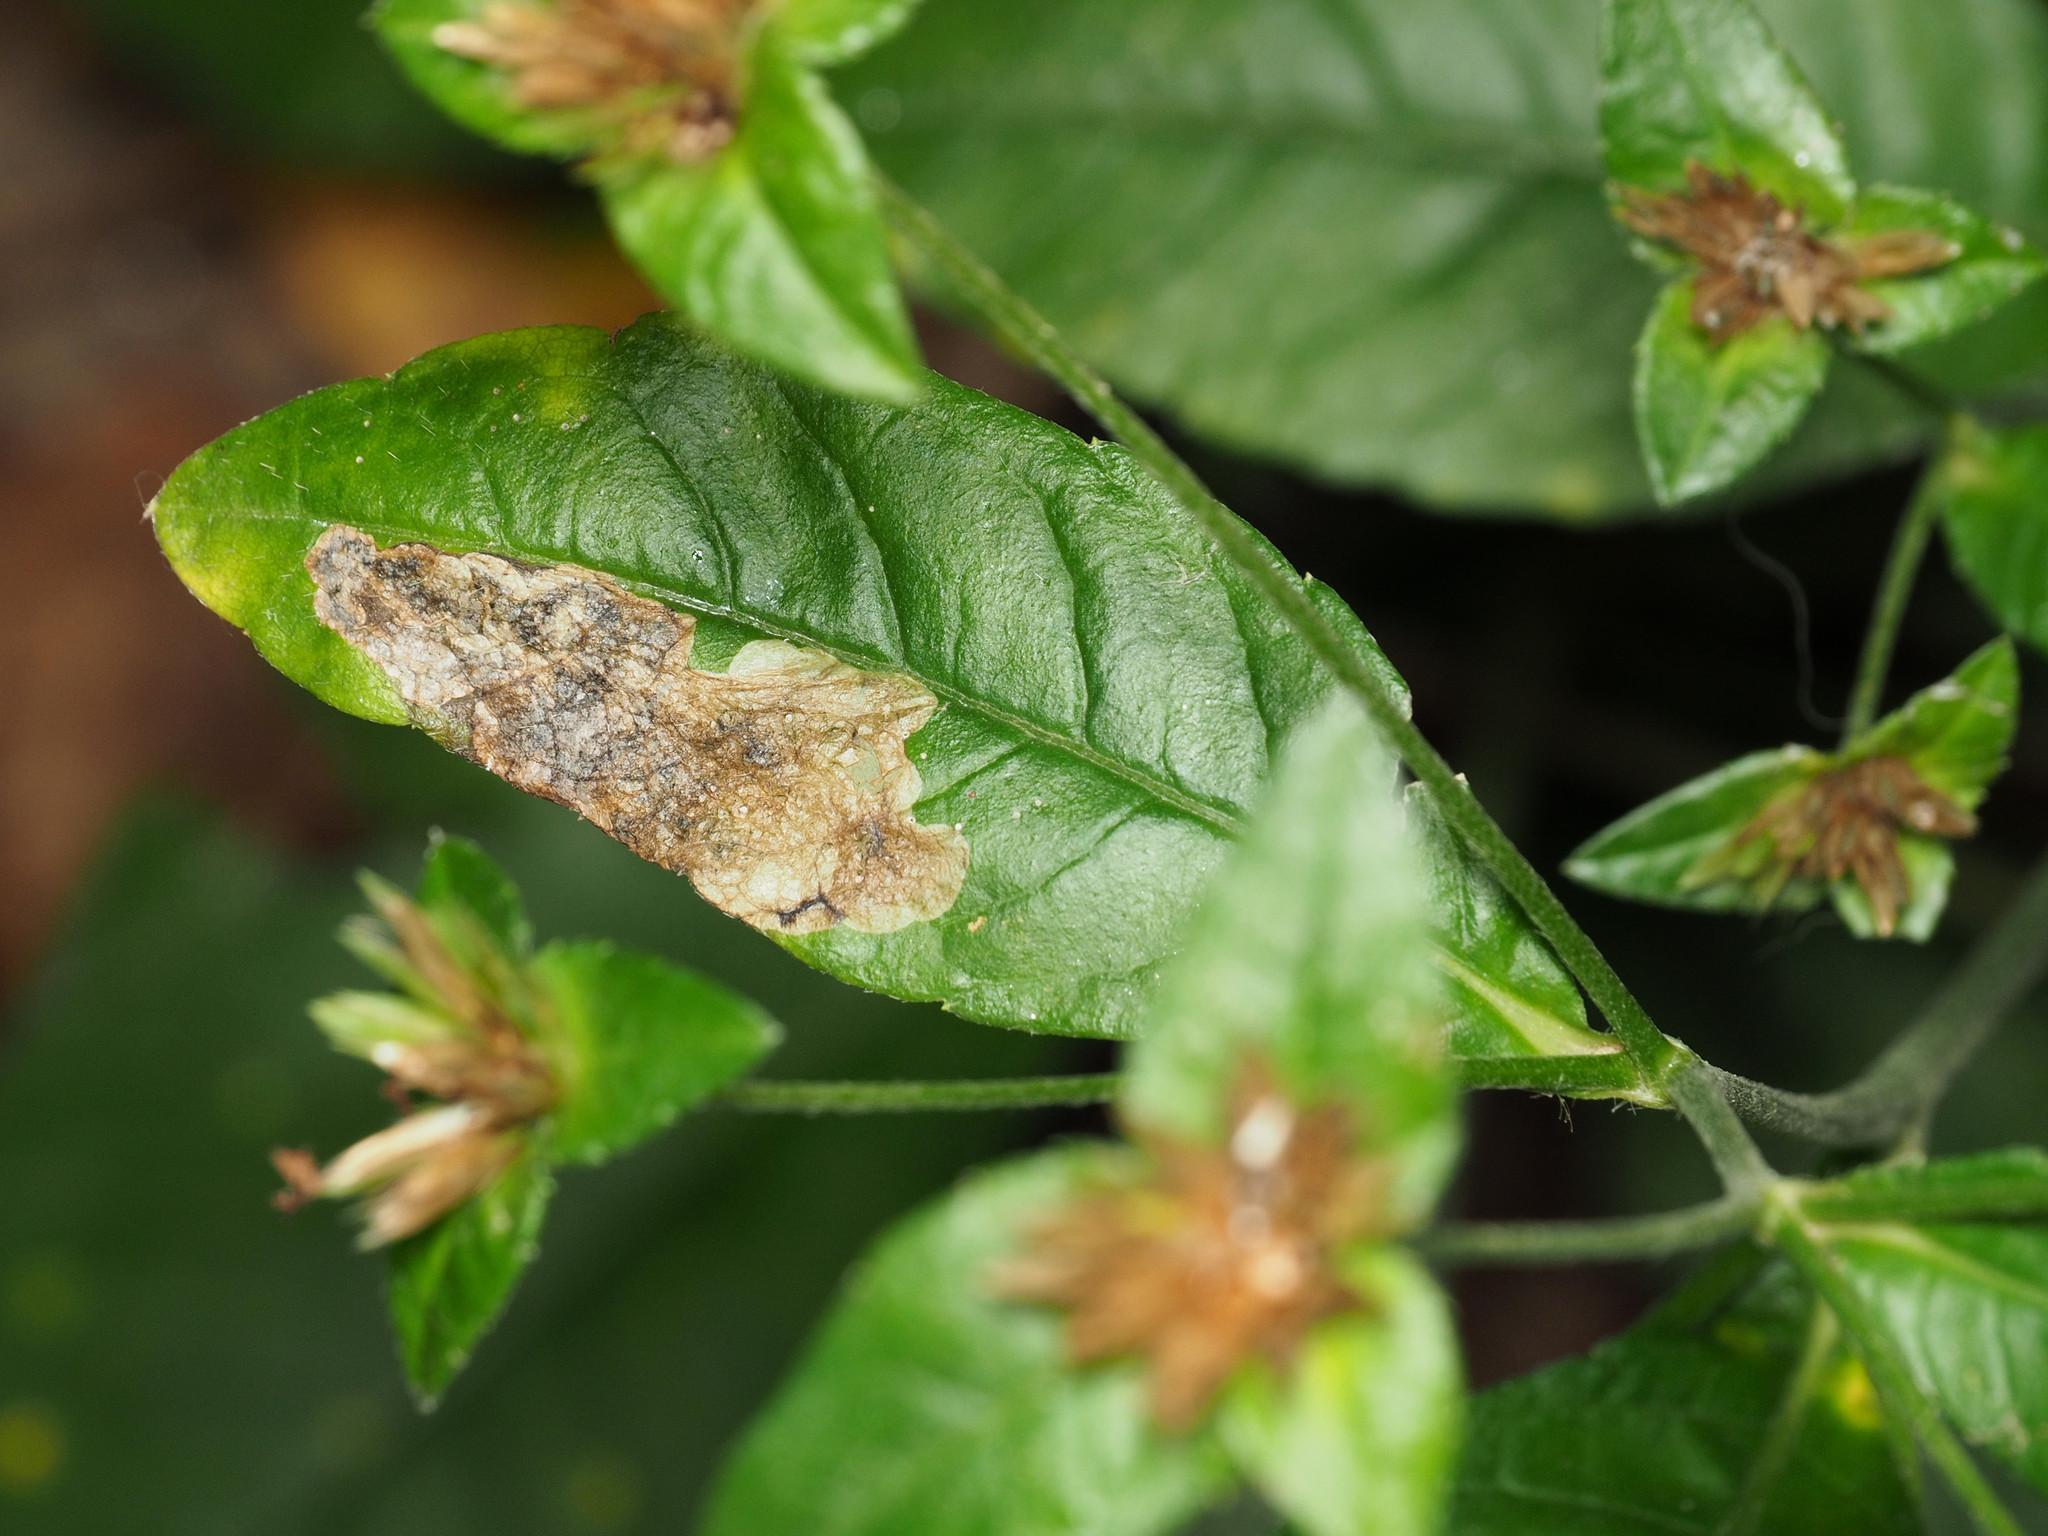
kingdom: Animalia
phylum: Arthropoda
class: Insecta
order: Diptera
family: Agromyzidae
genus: Nemorimyza
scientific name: Nemorimyza posticata
